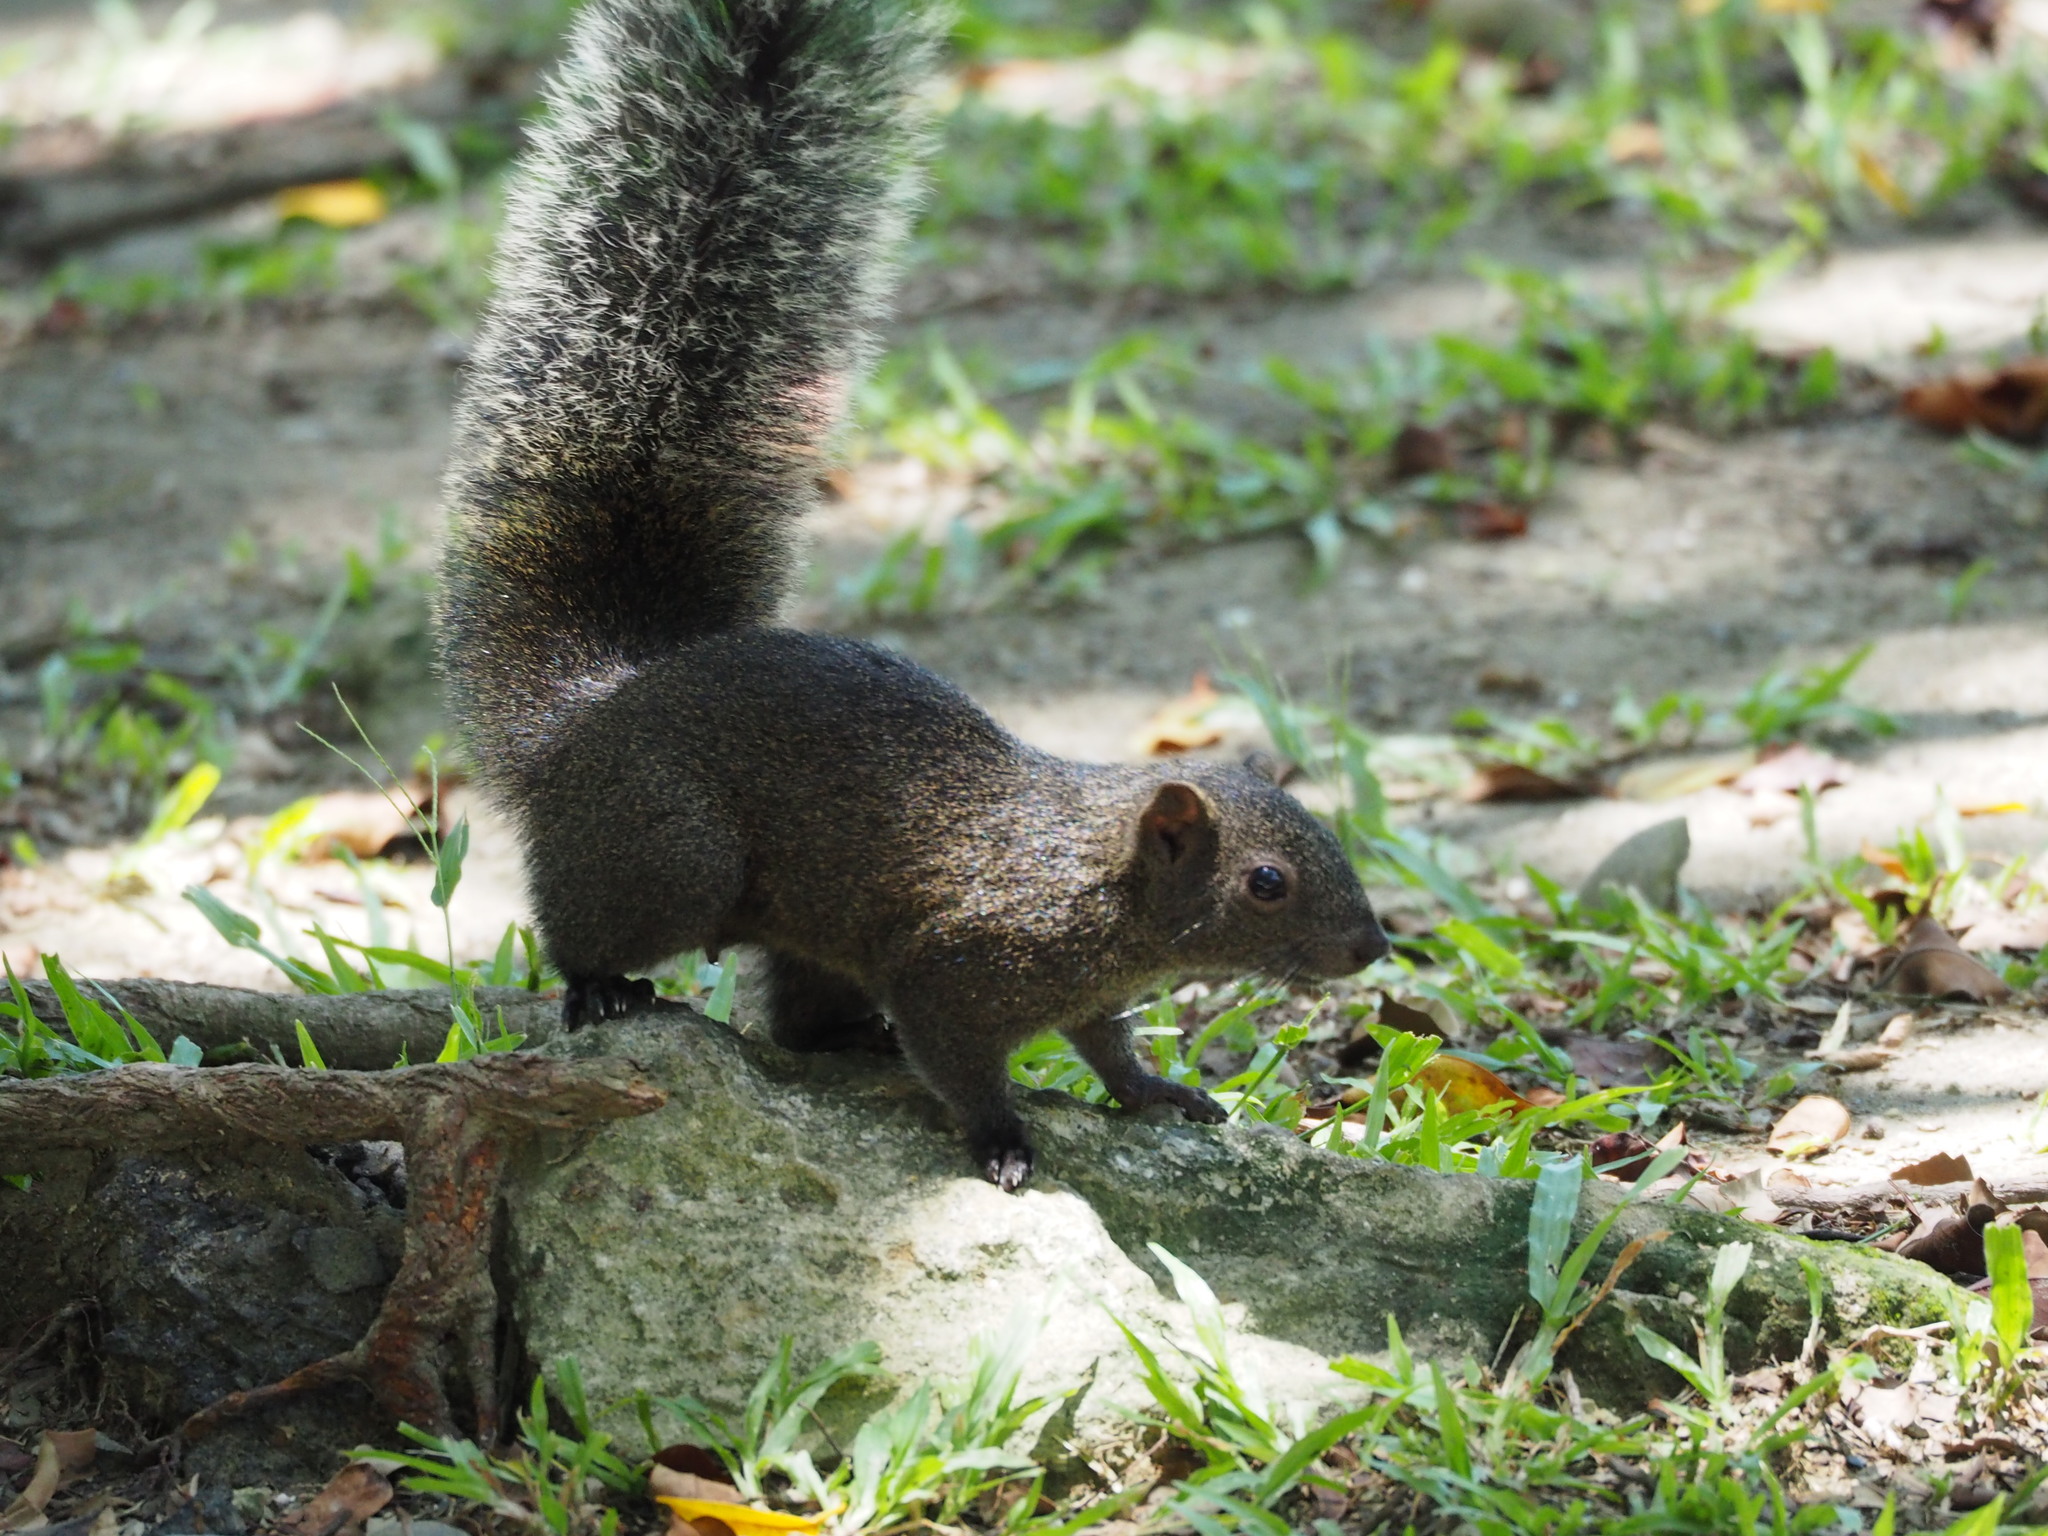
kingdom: Animalia
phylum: Chordata
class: Mammalia
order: Rodentia
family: Sciuridae
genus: Callosciurus
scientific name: Callosciurus erythraeus
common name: Pallas's squirrel
